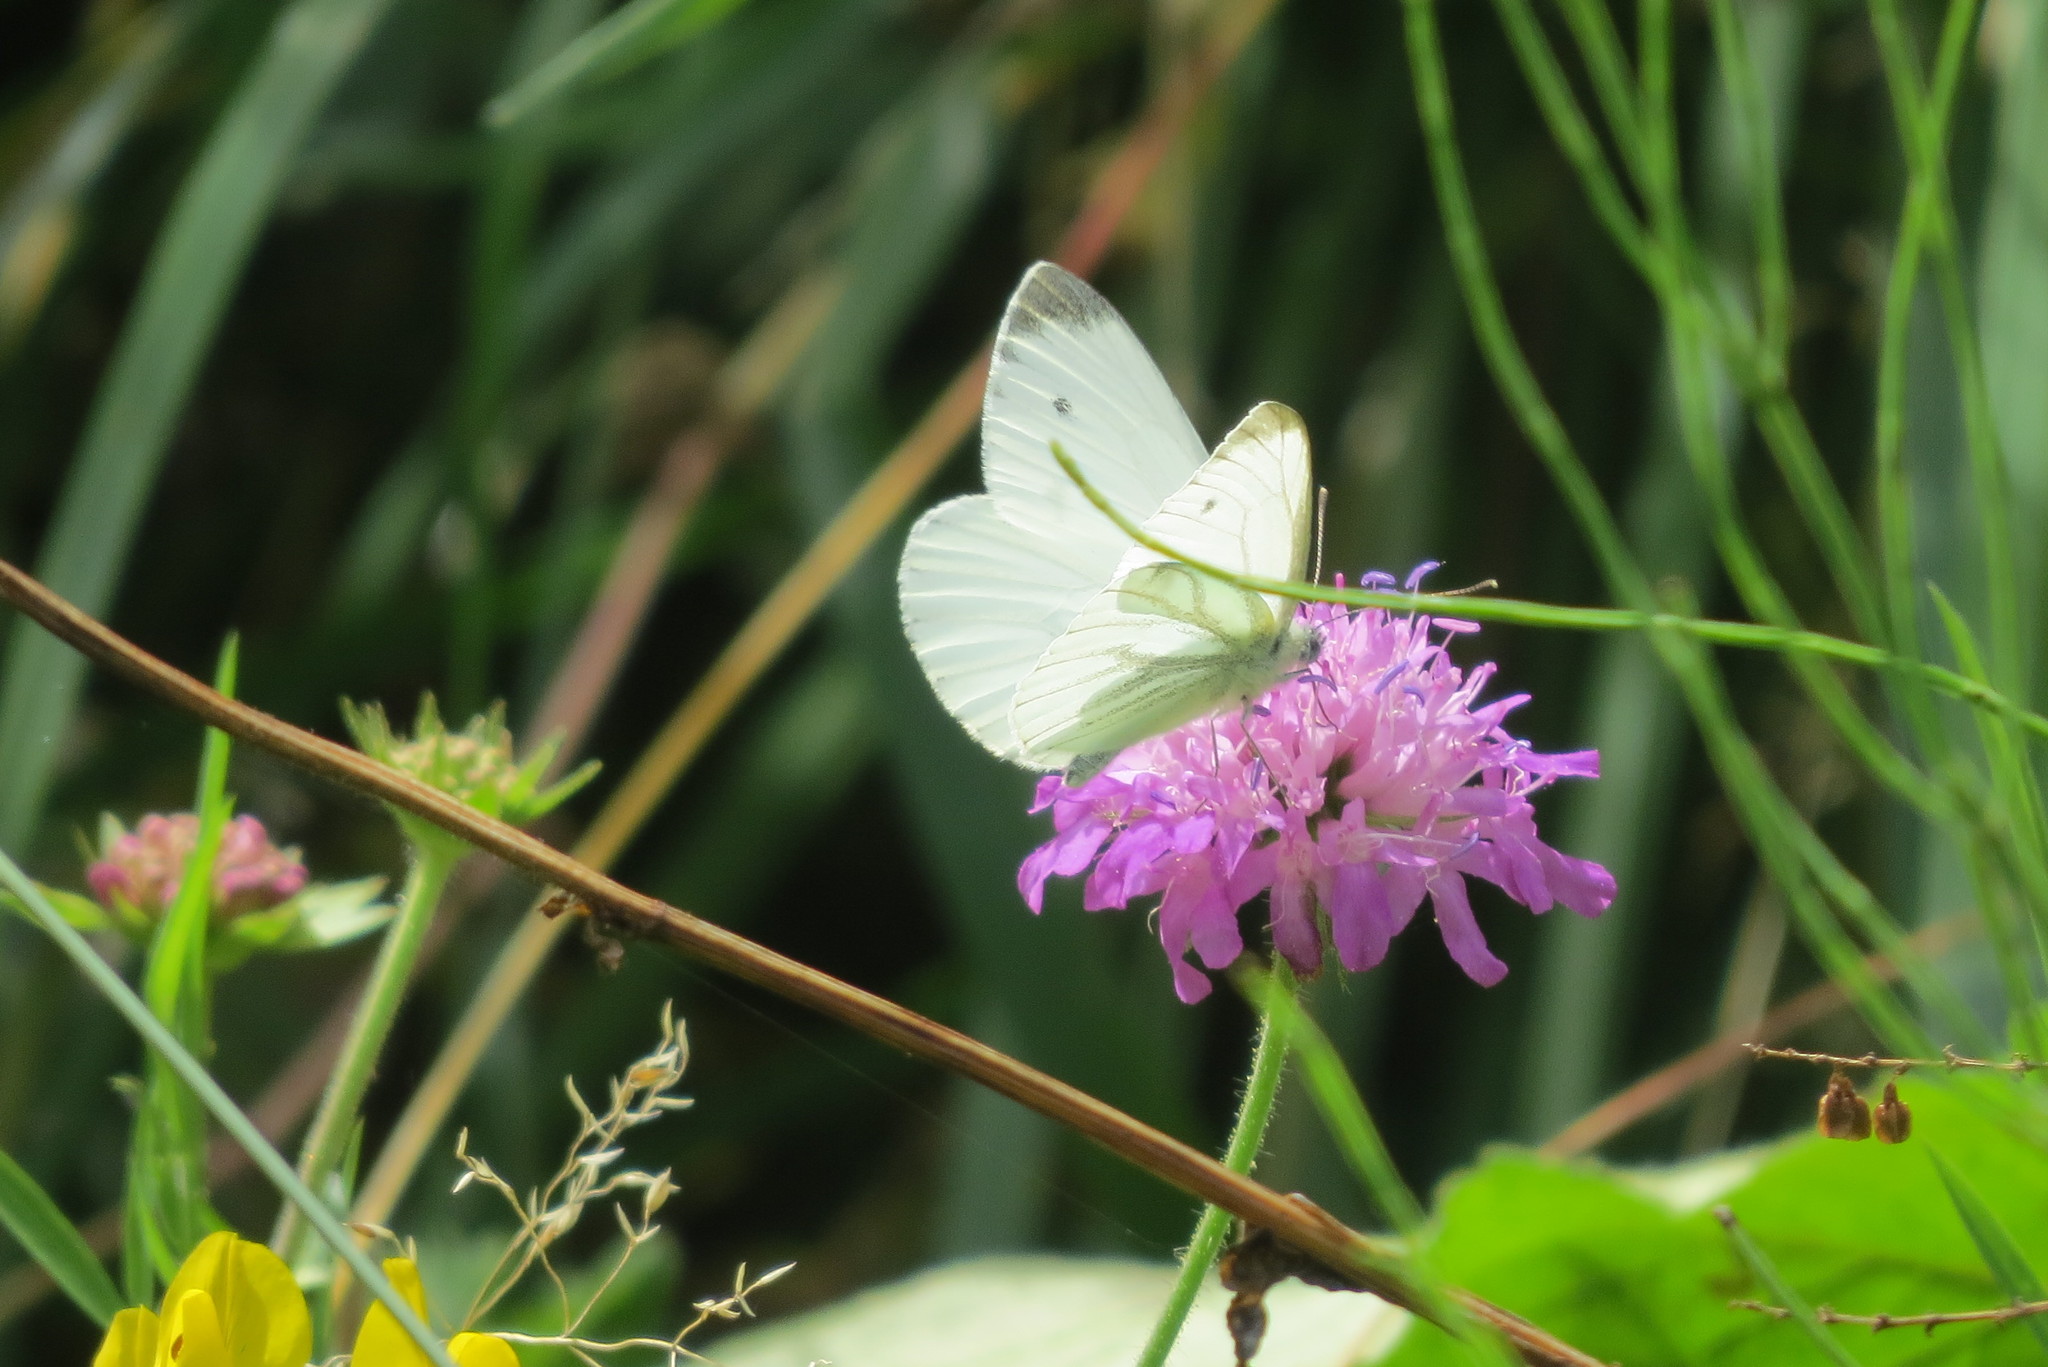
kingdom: Animalia
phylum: Arthropoda
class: Insecta
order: Lepidoptera
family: Pieridae
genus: Pieris
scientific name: Pieris napi
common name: Green-veined white
